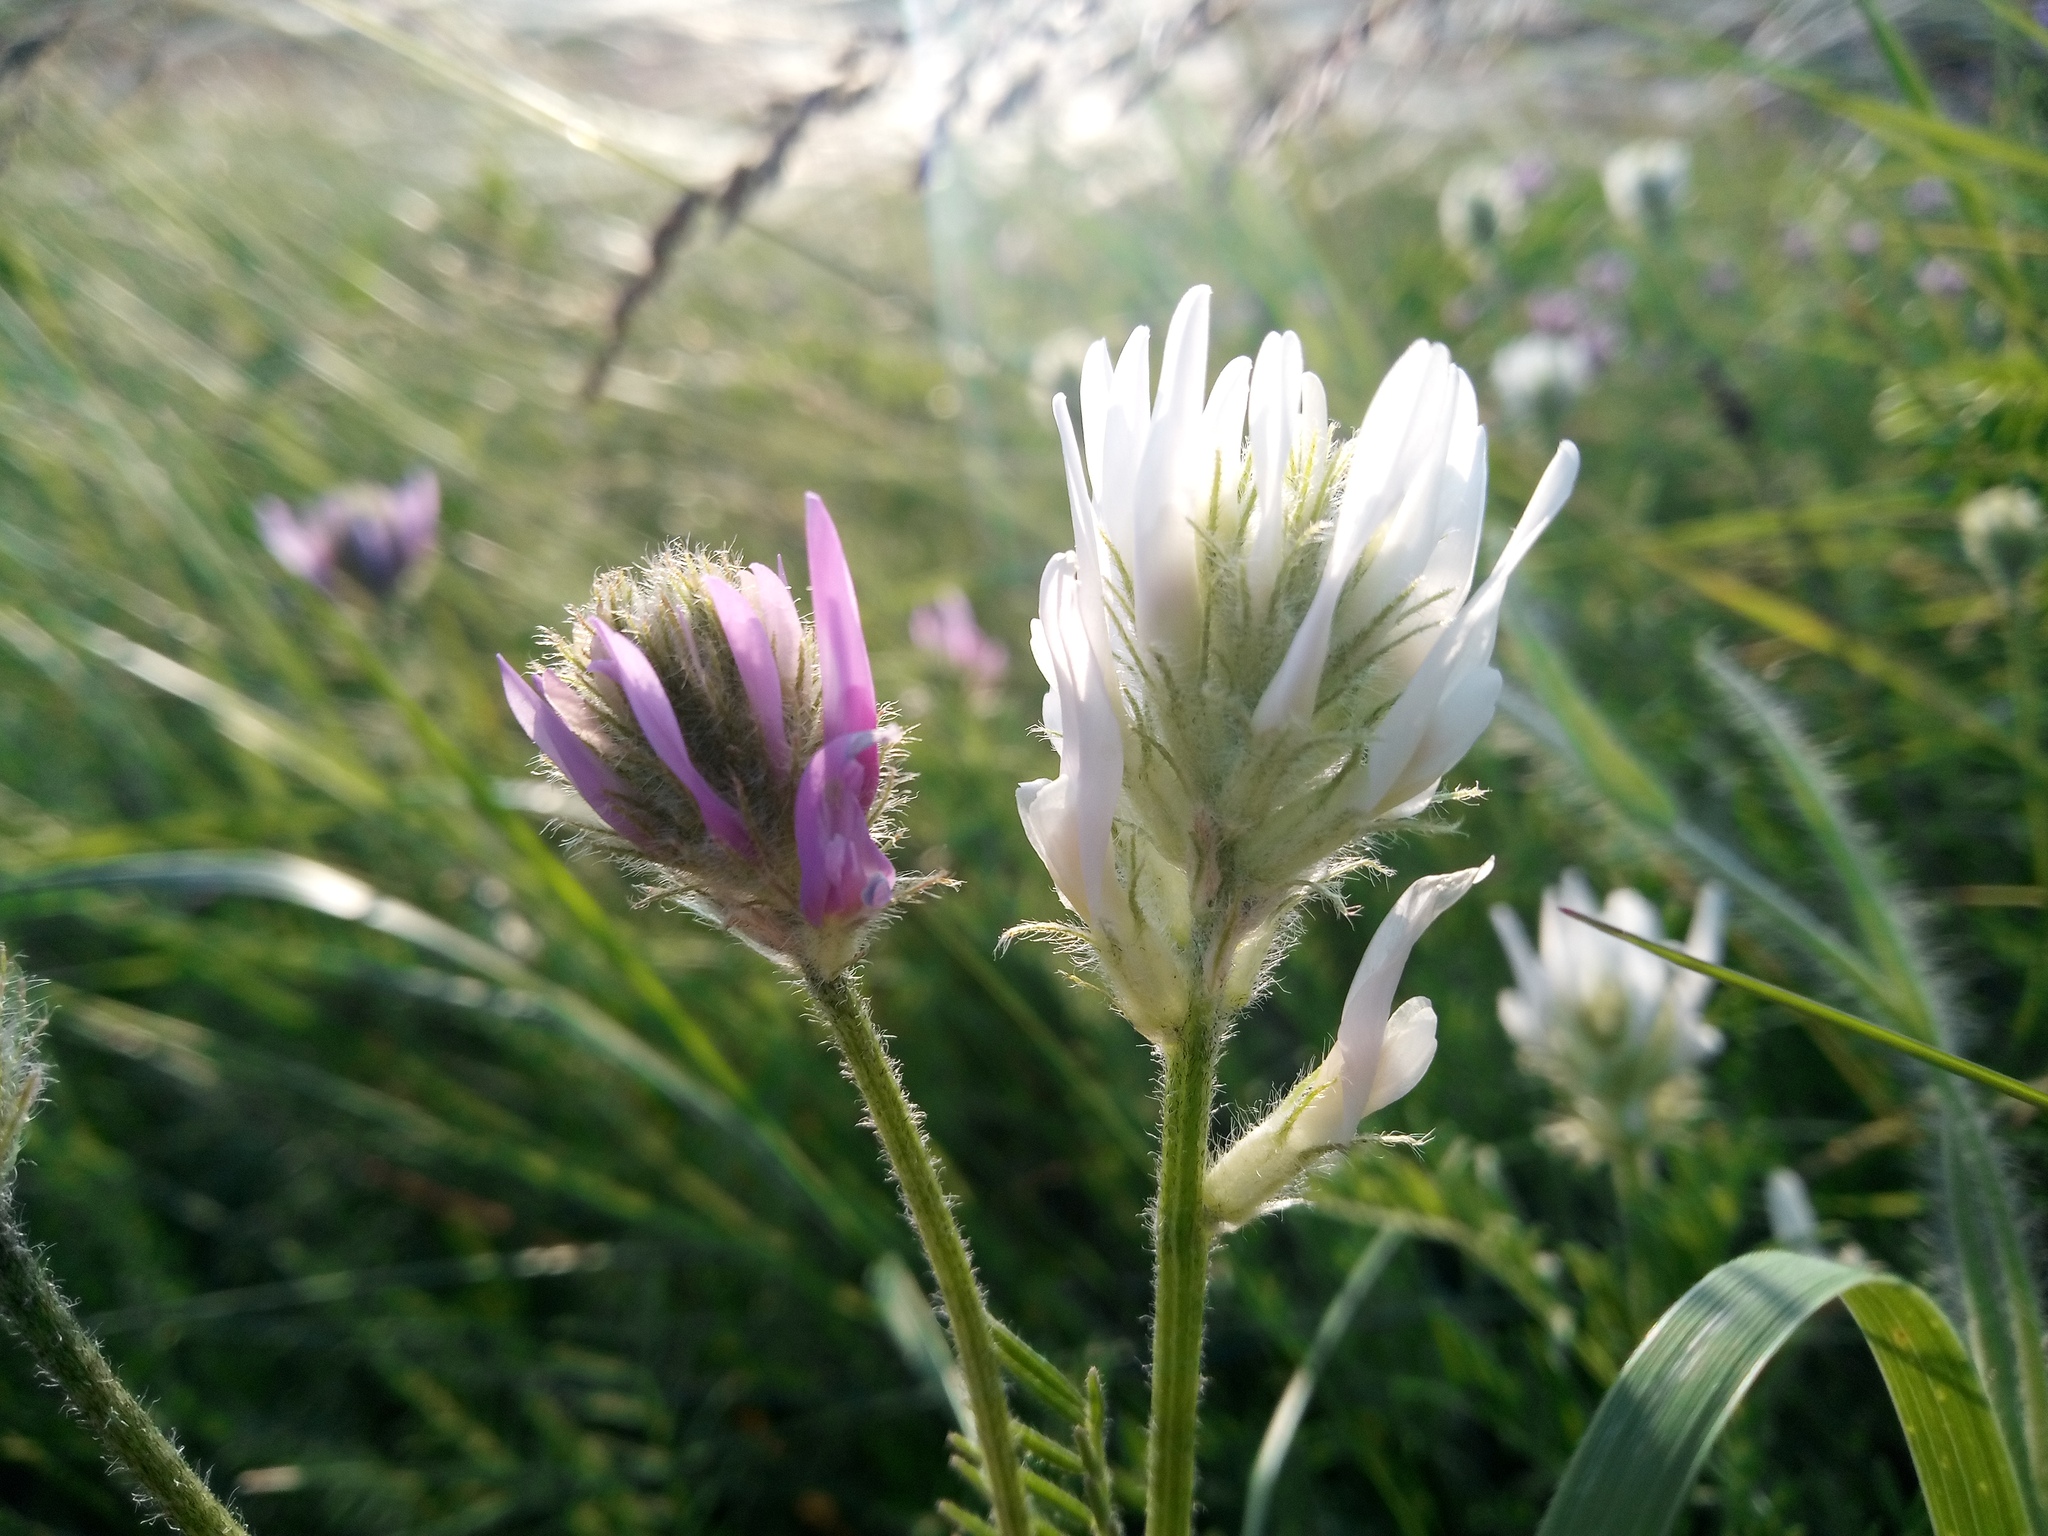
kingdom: Plantae
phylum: Tracheophyta
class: Magnoliopsida
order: Fabales
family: Fabaceae
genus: Astragalus
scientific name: Astragalus onobrychis
